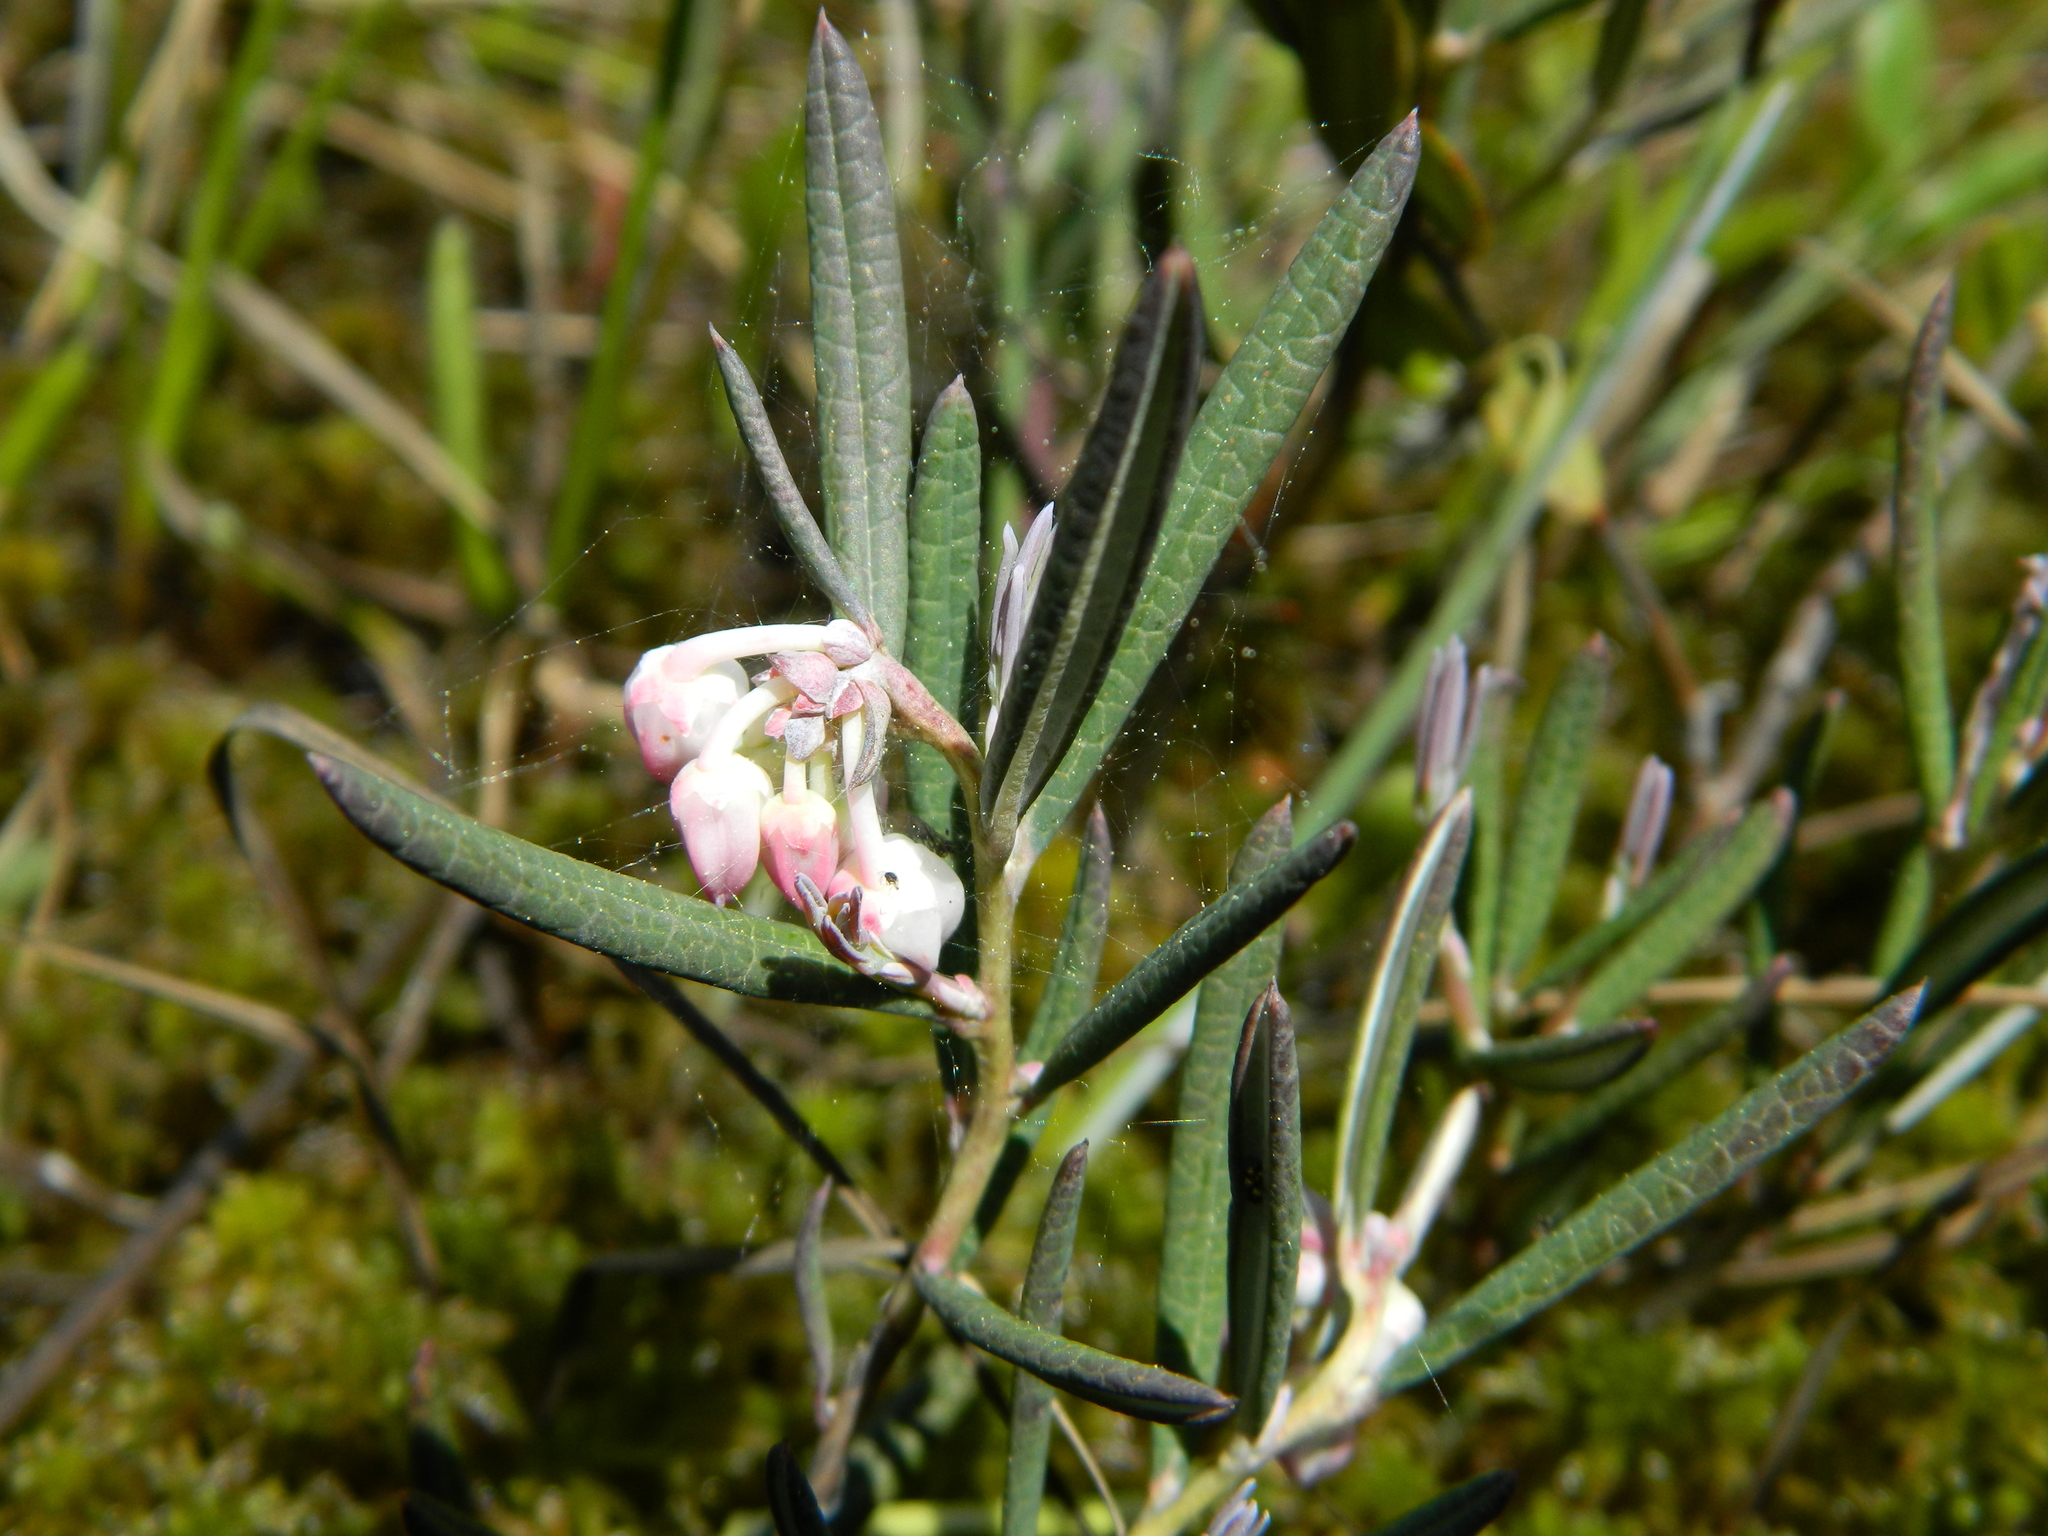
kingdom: Plantae
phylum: Tracheophyta
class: Magnoliopsida
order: Ericales
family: Ericaceae
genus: Andromeda
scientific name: Andromeda polifolia
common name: Bog-rosemary
